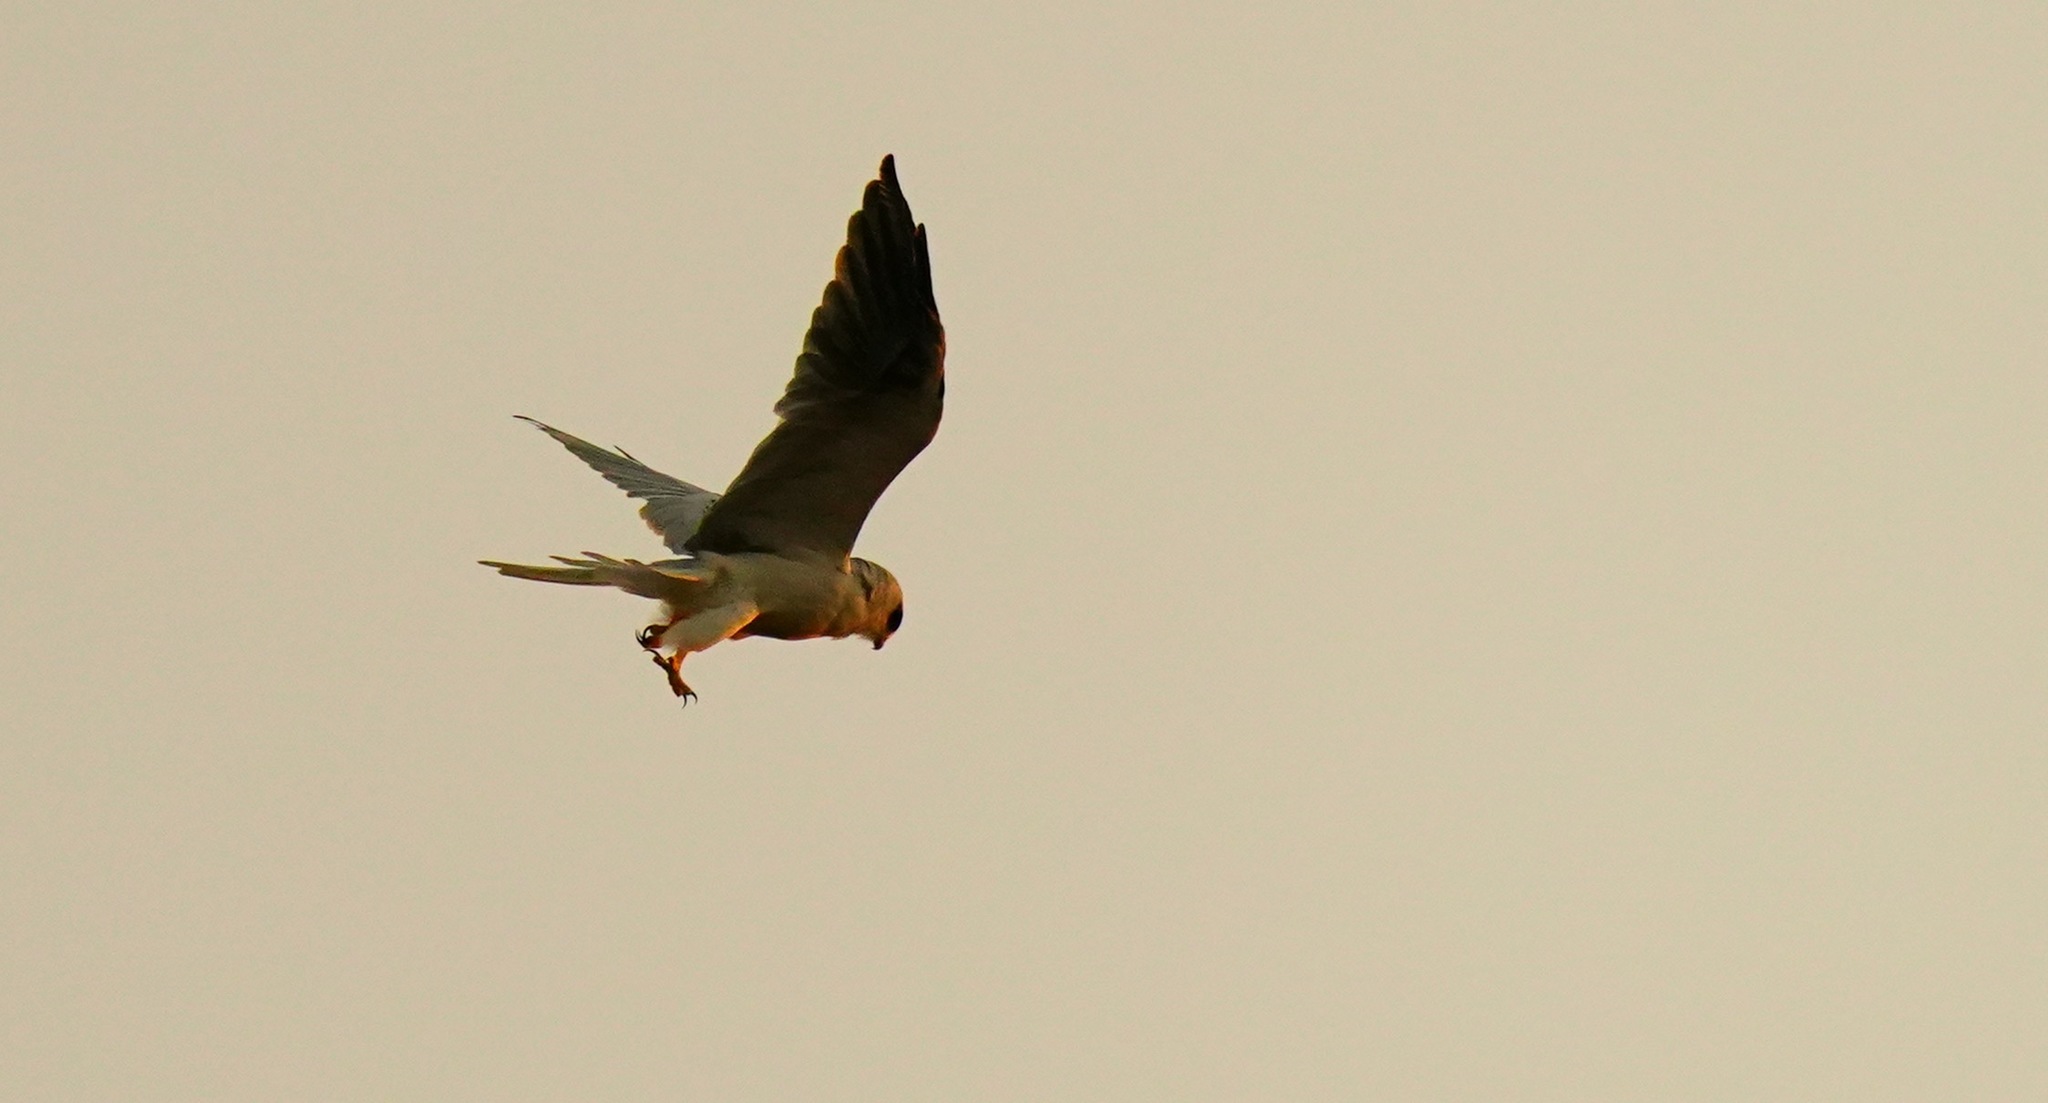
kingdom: Animalia
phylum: Chordata
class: Aves
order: Accipitriformes
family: Accipitridae
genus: Elanus
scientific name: Elanus leucurus
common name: White-tailed kite
